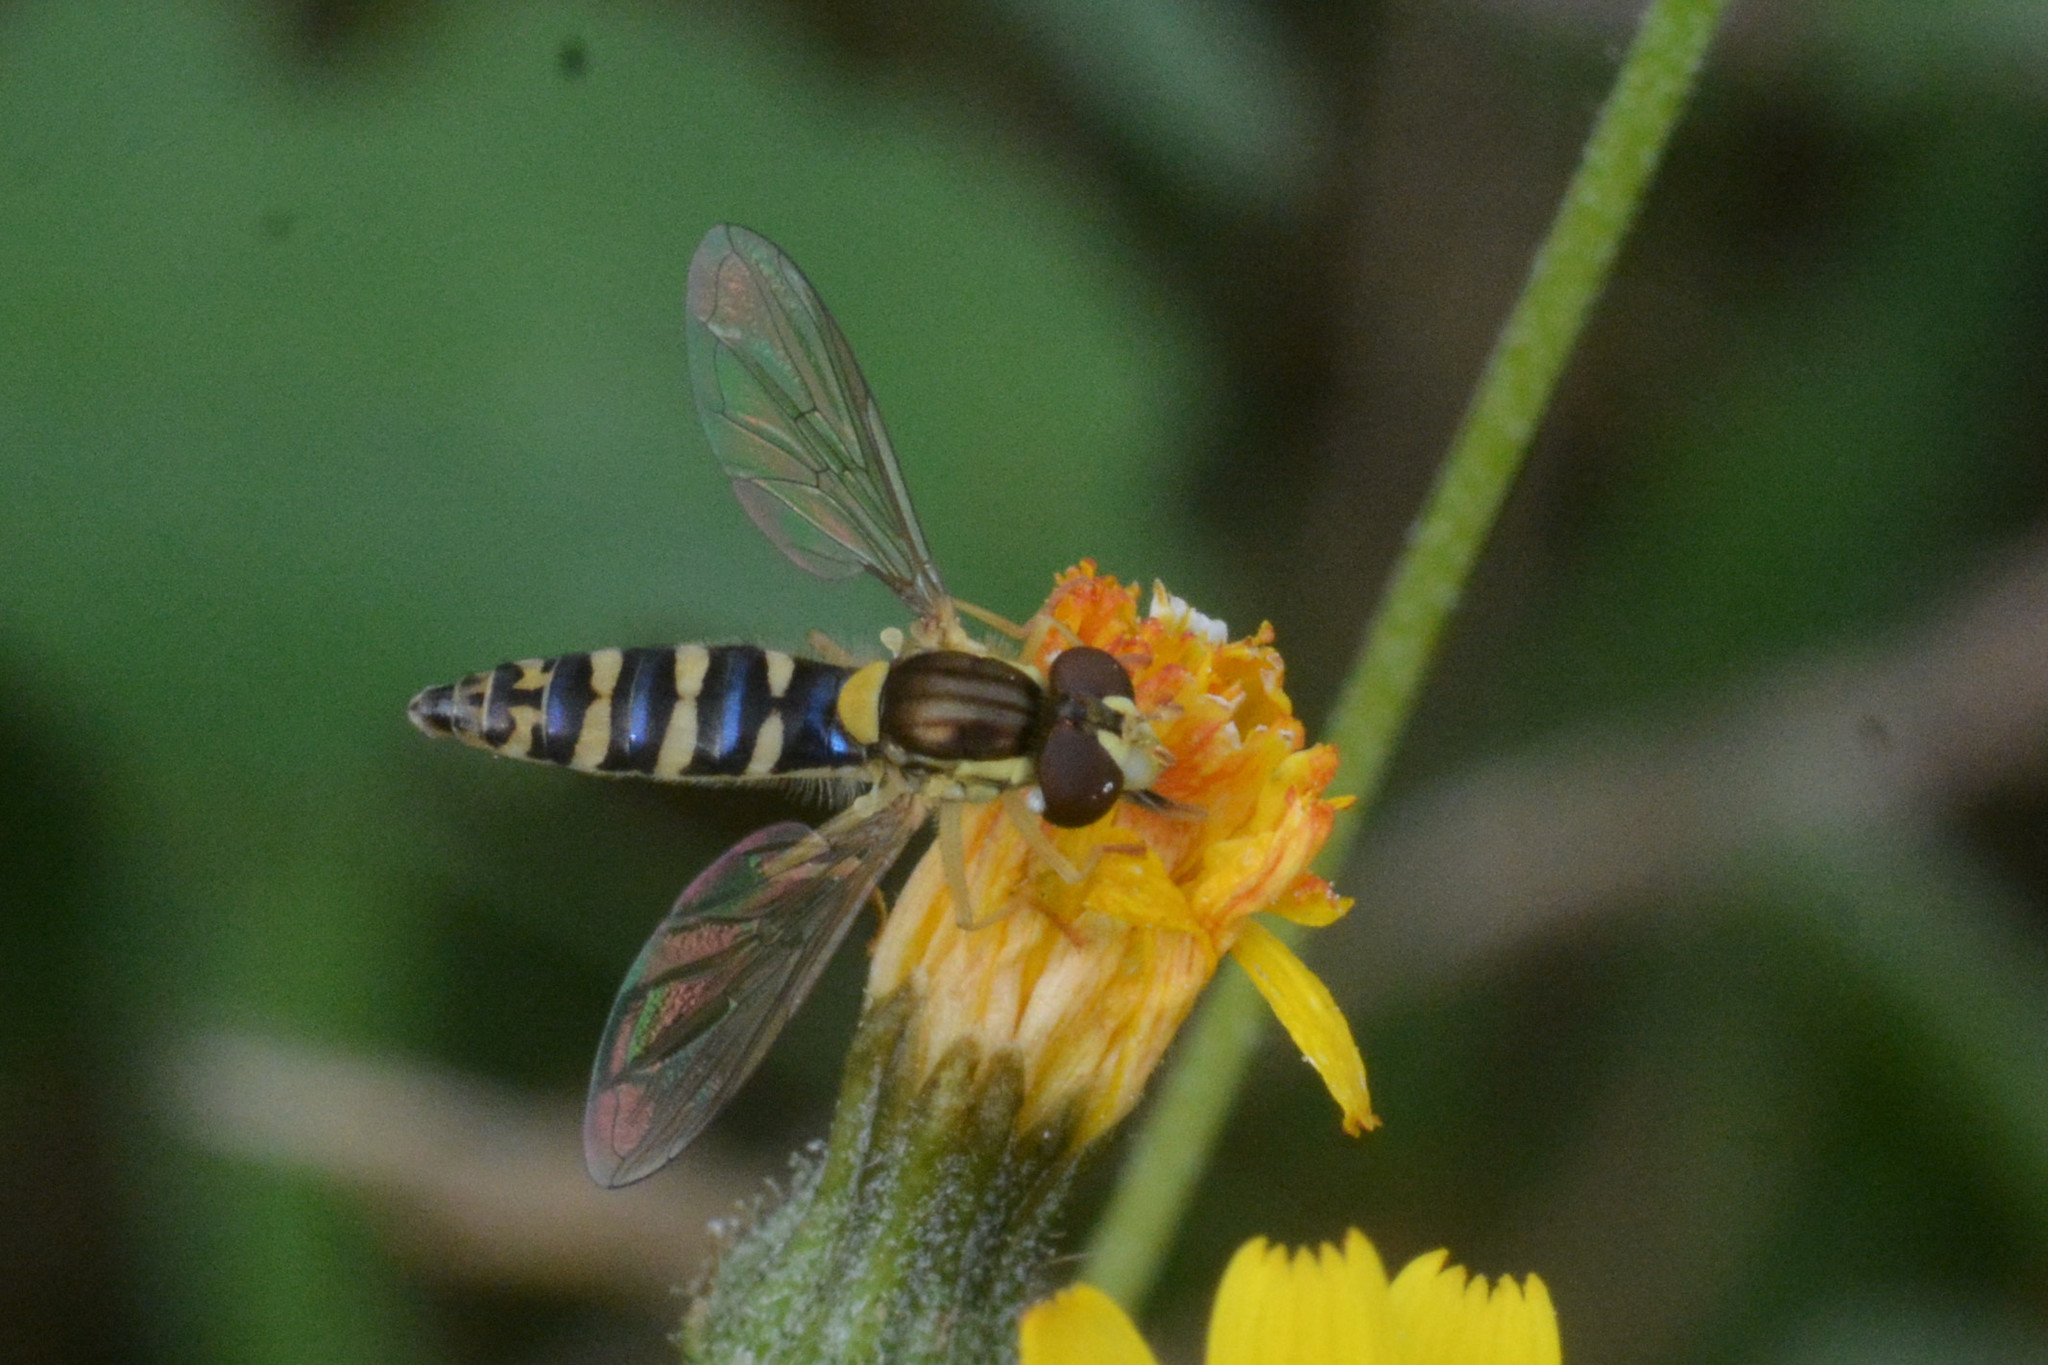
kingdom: Animalia
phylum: Arthropoda
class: Insecta
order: Diptera
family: Syrphidae
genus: Sphaerophoria
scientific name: Sphaerophoria scripta
